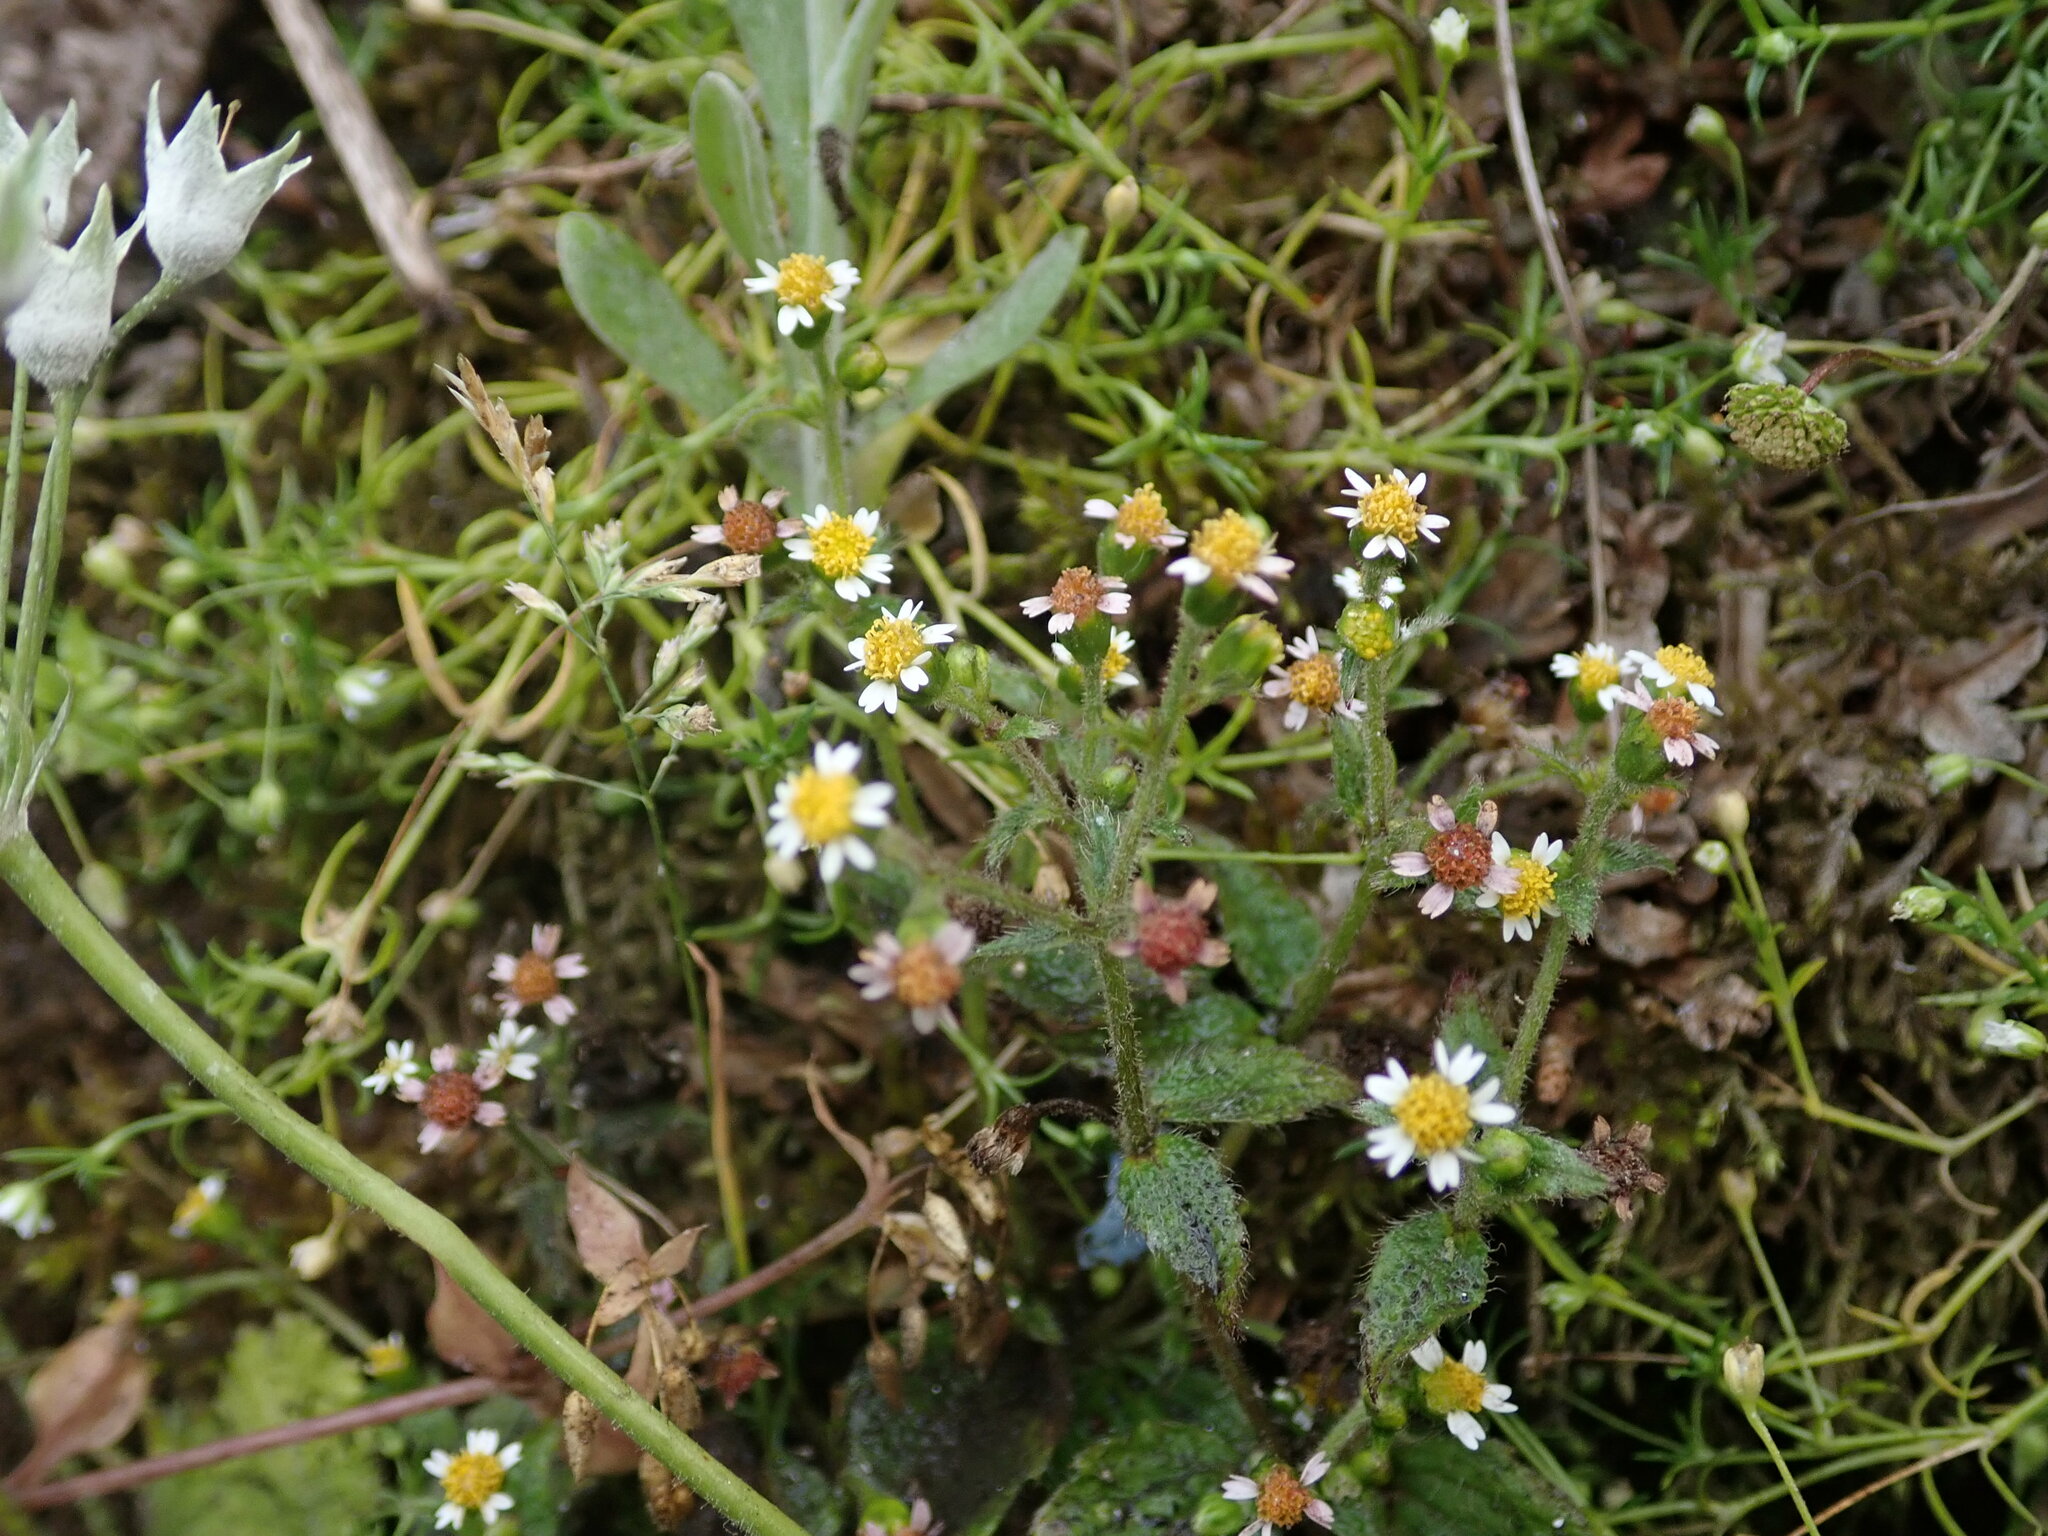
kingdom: Plantae
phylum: Tracheophyta
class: Magnoliopsida
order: Asterales
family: Asteraceae
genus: Galinsoga
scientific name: Galinsoga quadriradiata
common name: Shaggy soldier
